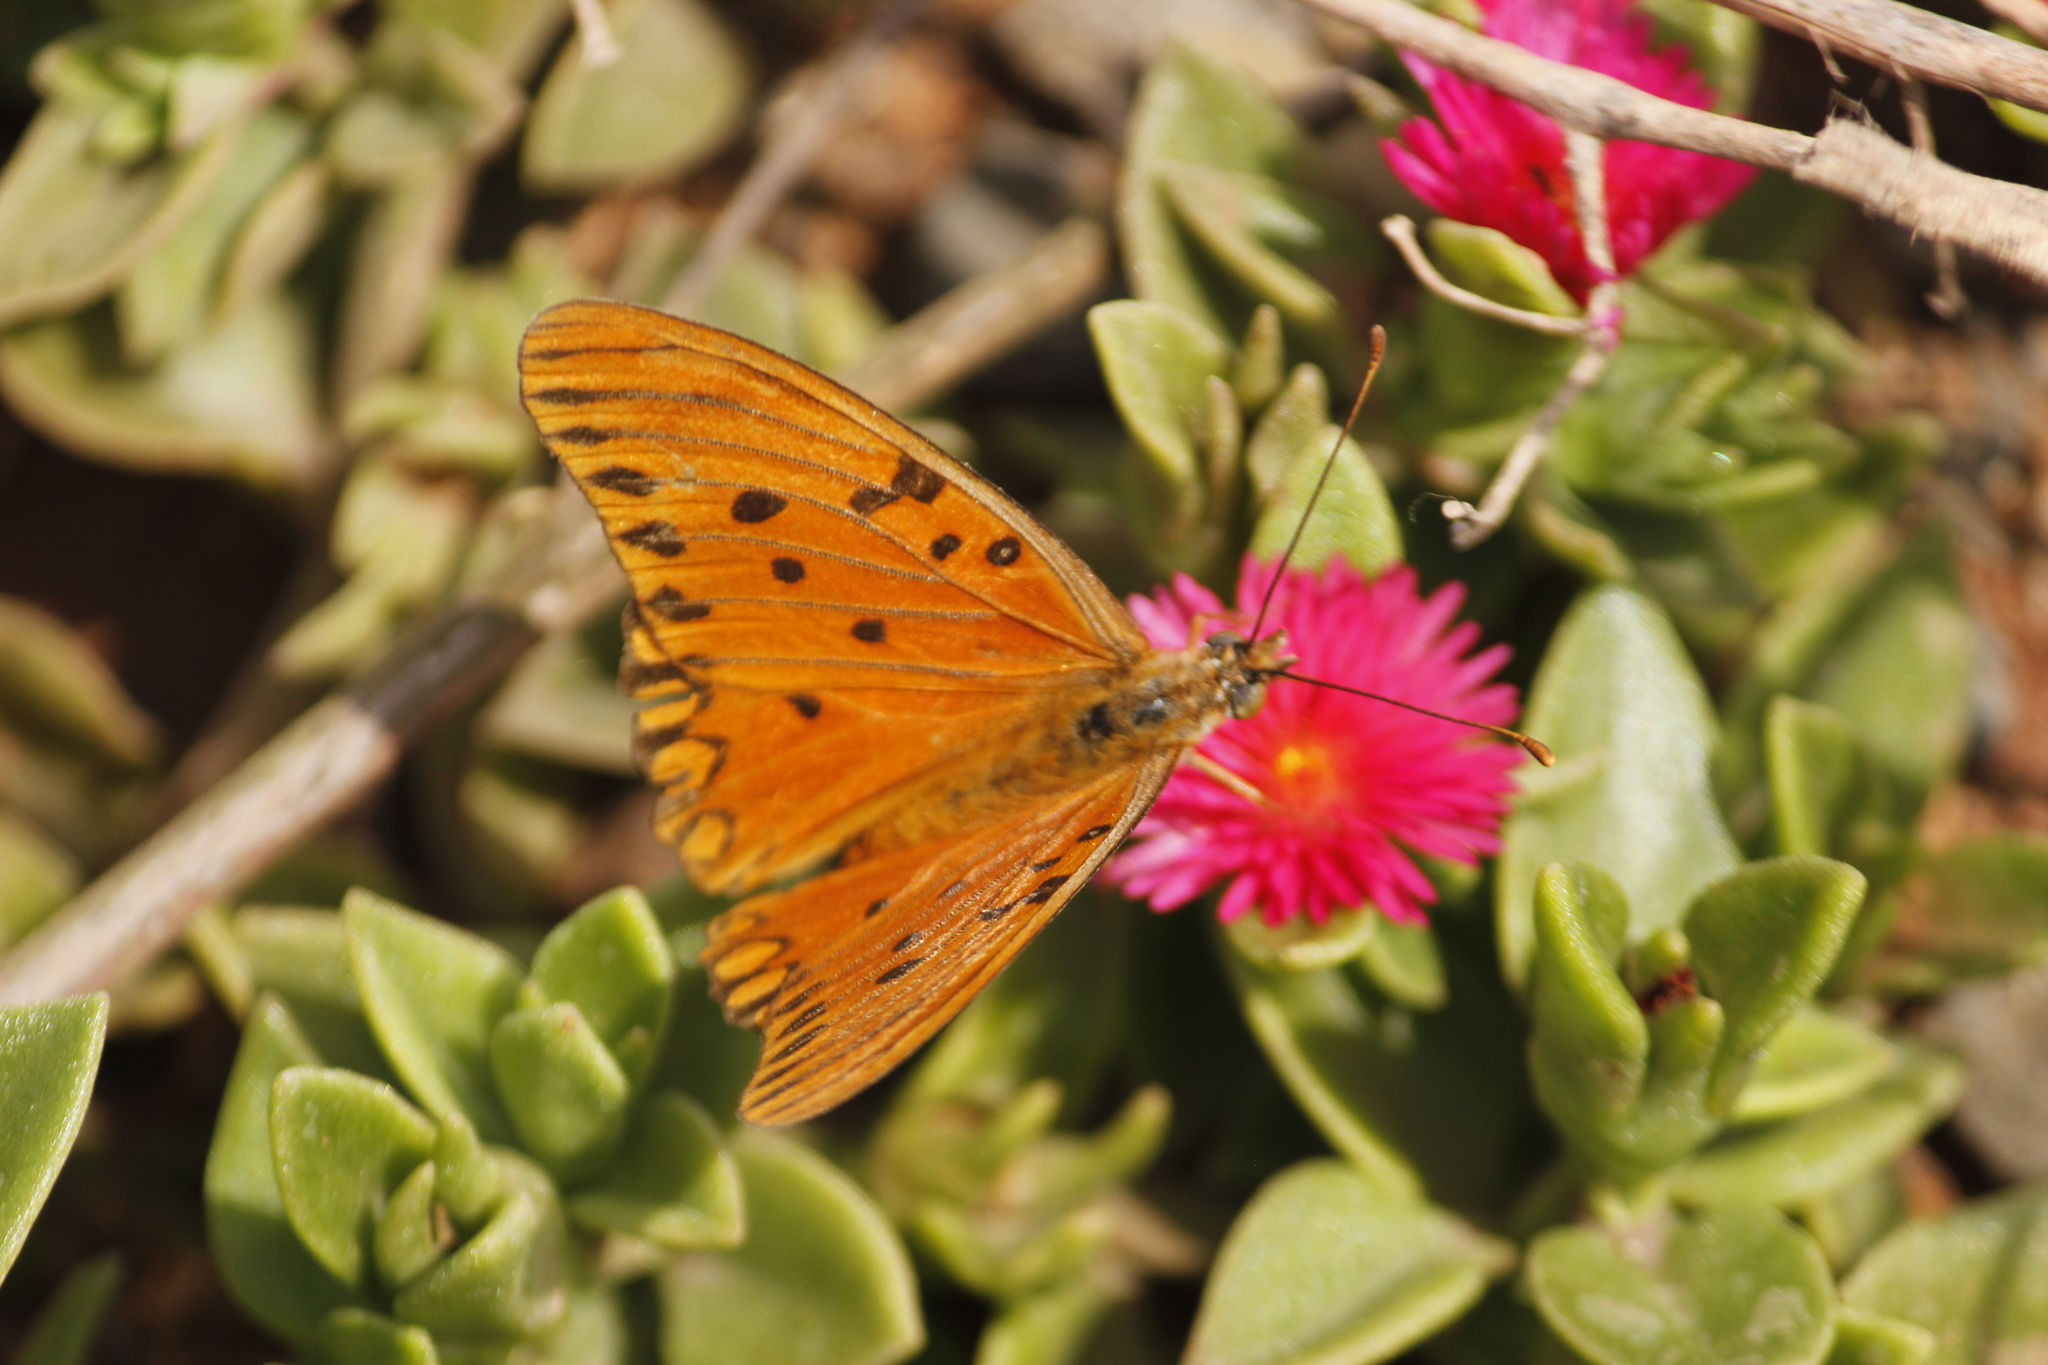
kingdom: Animalia
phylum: Arthropoda
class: Insecta
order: Lepidoptera
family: Nymphalidae
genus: Dione
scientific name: Dione vanillae
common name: Gulf fritillary
